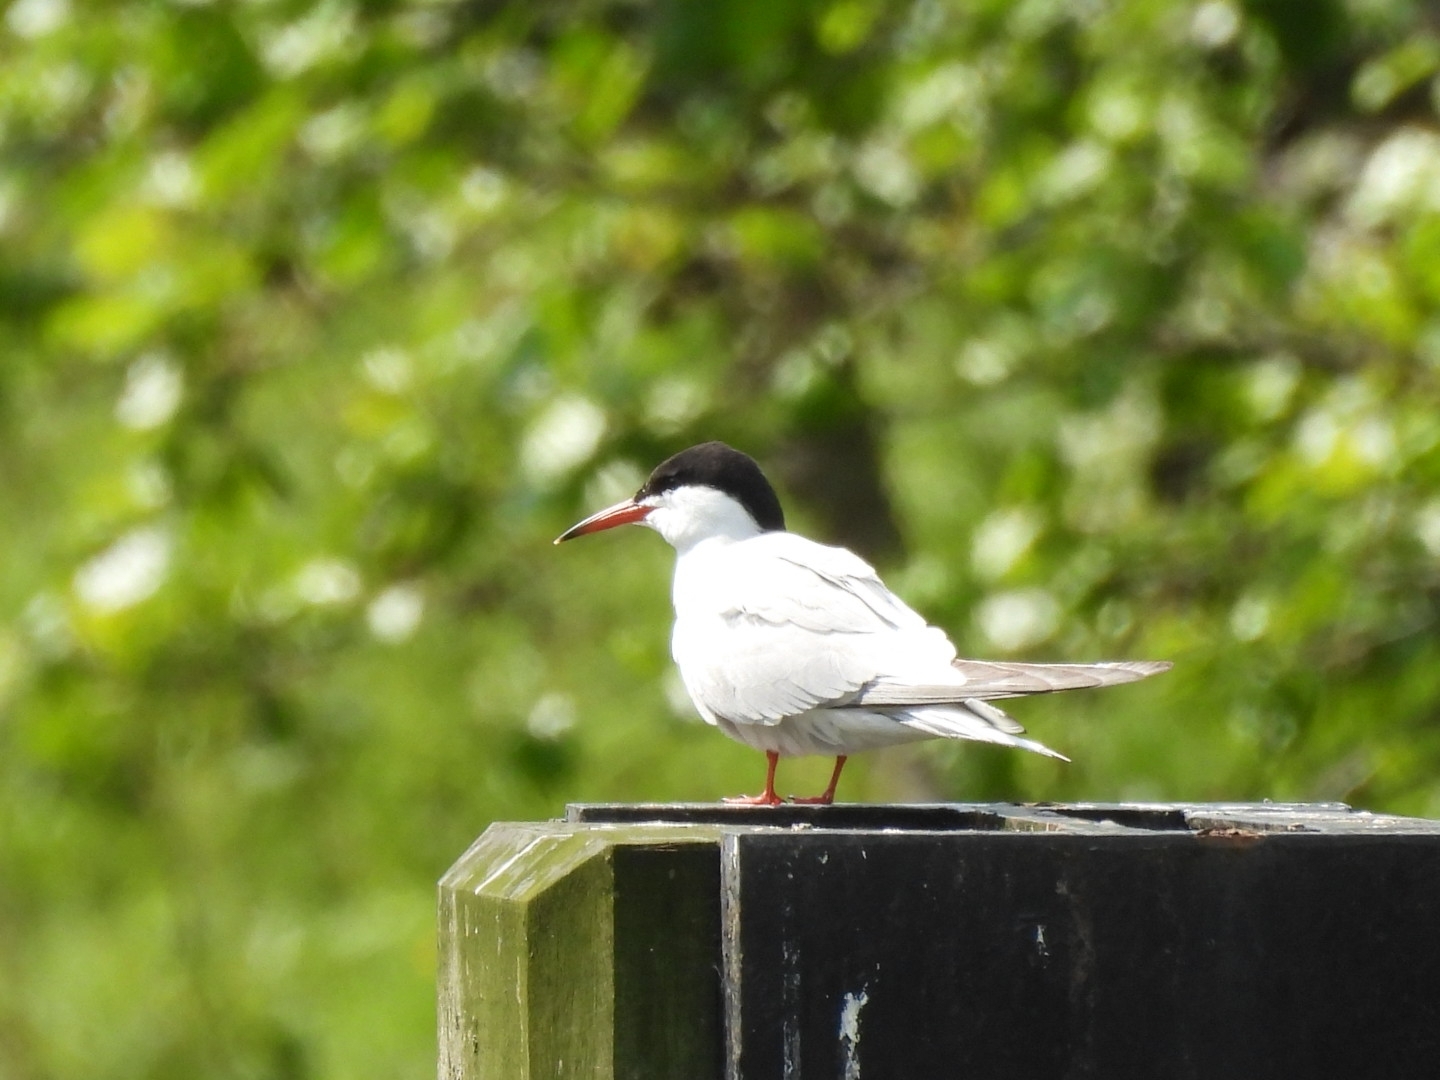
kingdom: Animalia
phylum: Chordata
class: Aves
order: Charadriiformes
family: Laridae
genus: Sterna
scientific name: Sterna hirundo
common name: Common tern
